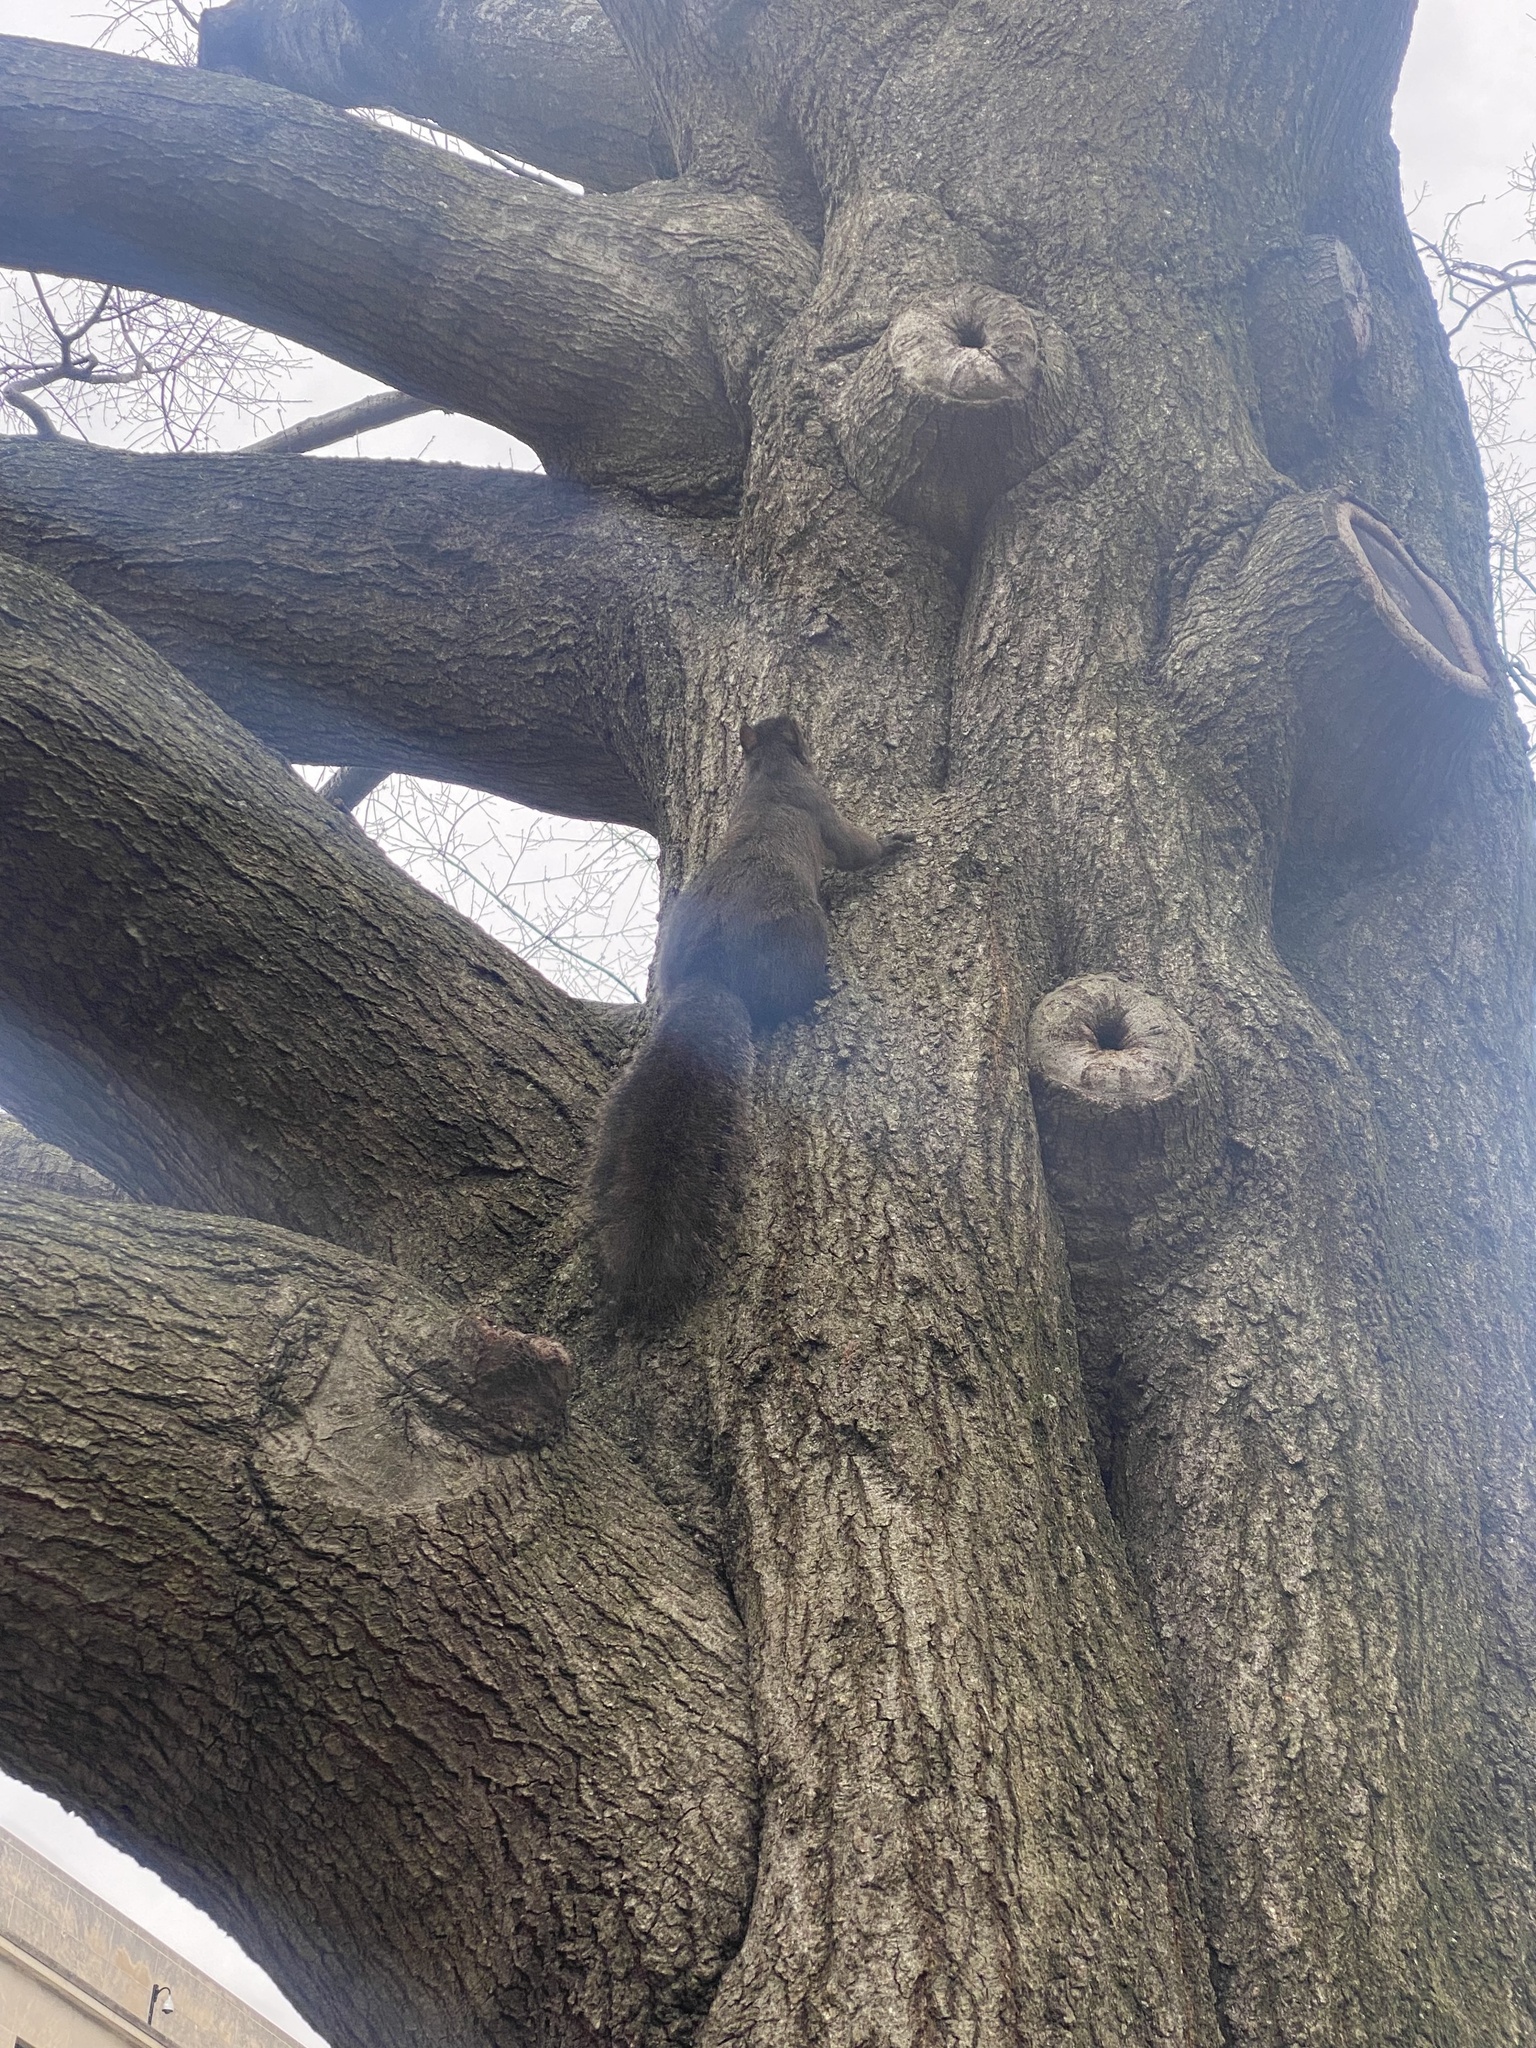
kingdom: Animalia
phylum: Chordata
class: Mammalia
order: Rodentia
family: Sciuridae
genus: Sciurus
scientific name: Sciurus carolinensis
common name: Eastern gray squirrel
